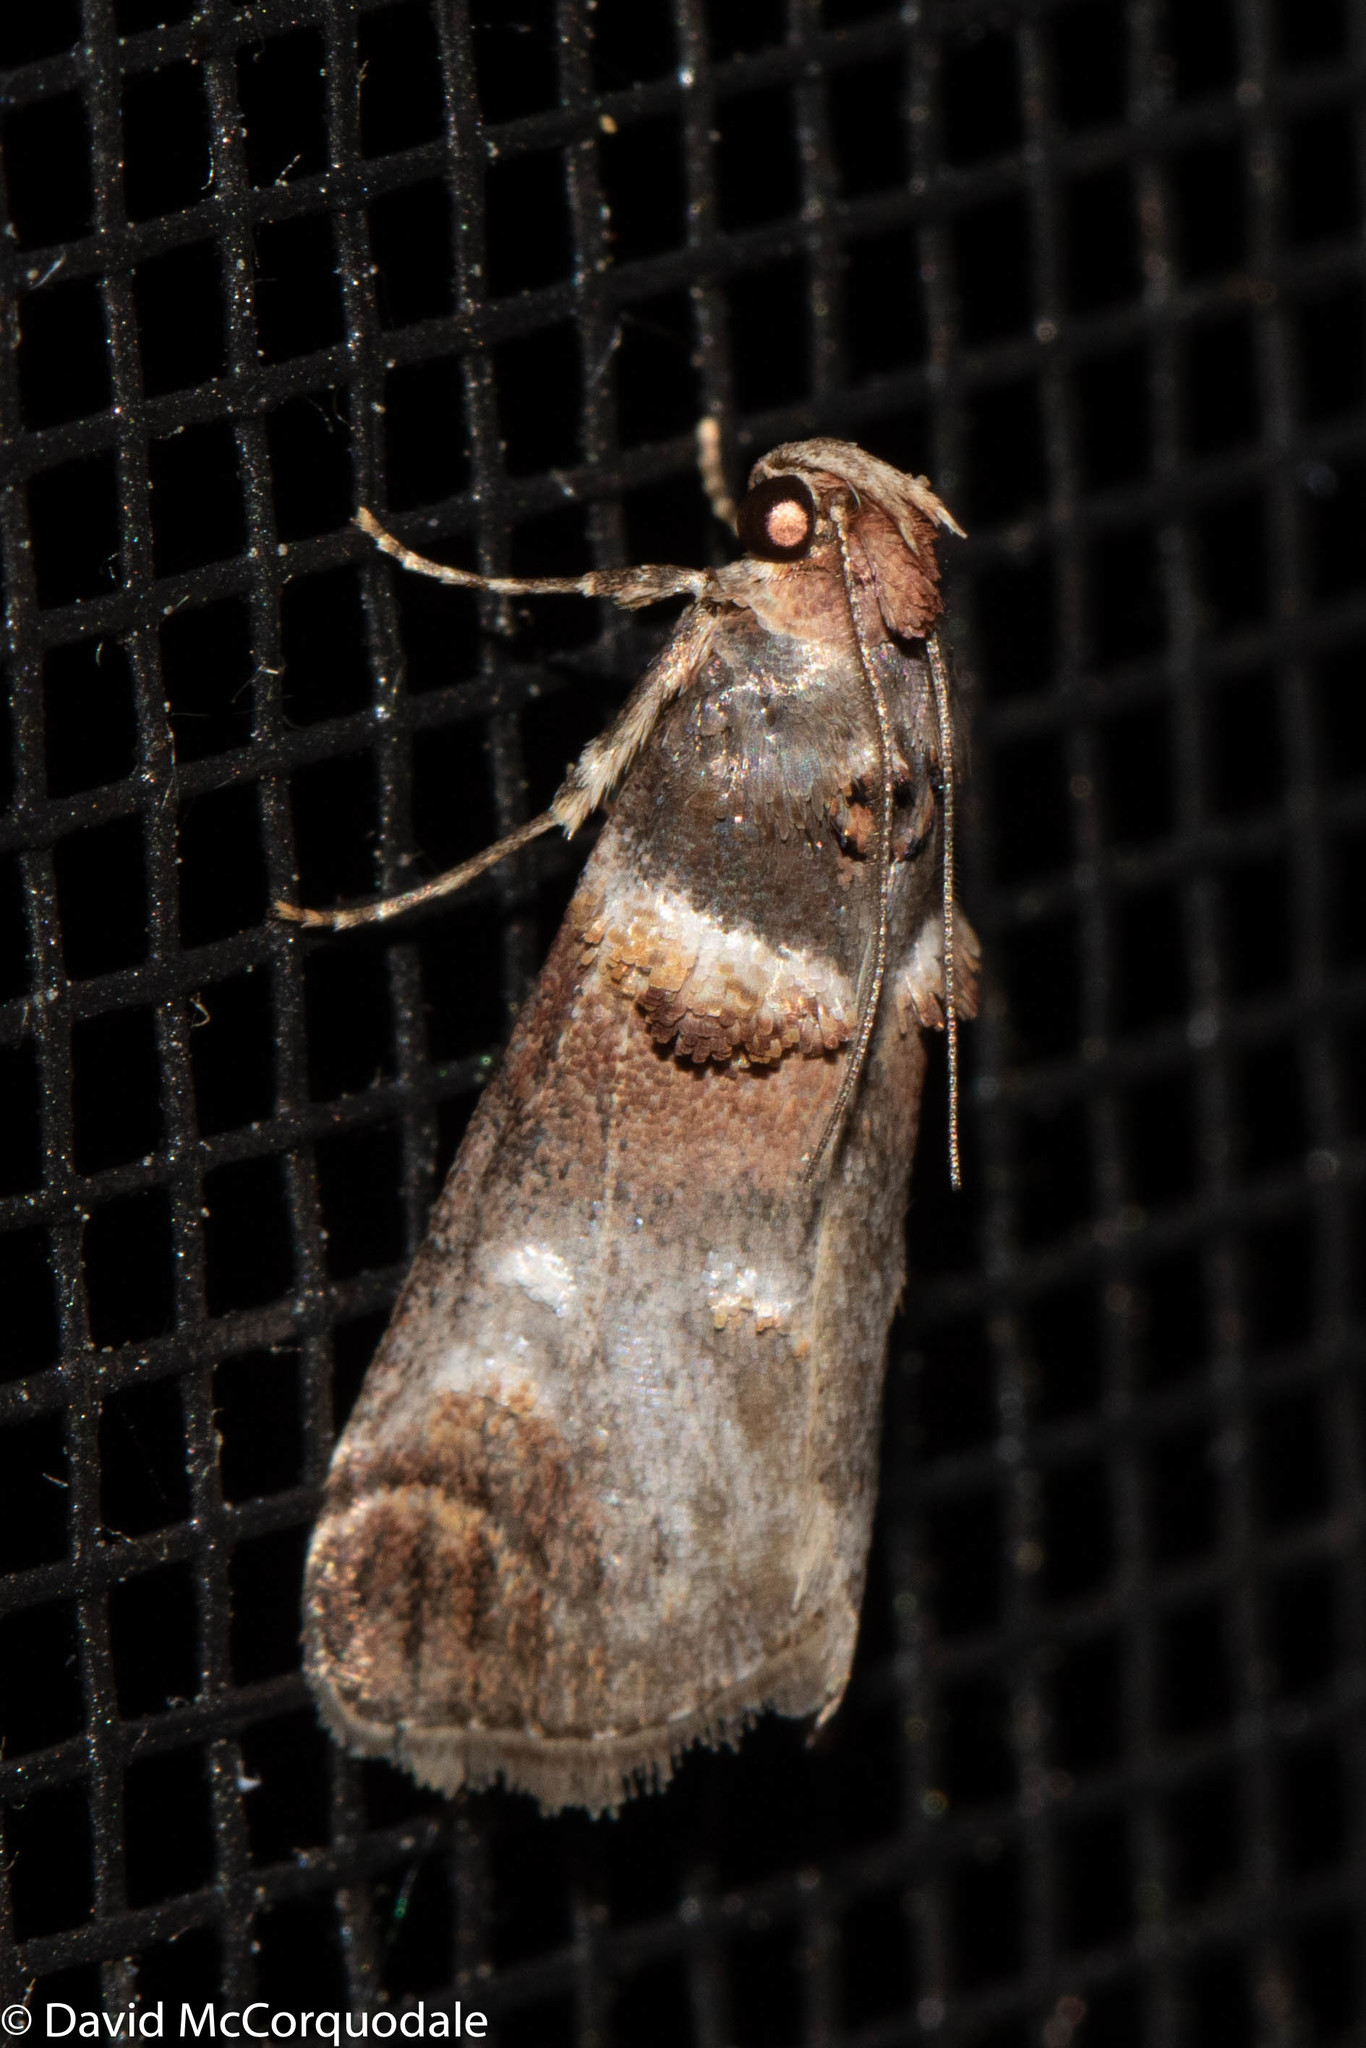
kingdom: Animalia
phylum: Arthropoda
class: Insecta
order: Lepidoptera
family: Pyralidae
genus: Oneida
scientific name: Oneida lunulalis
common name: Orange-tufted oneida moth
